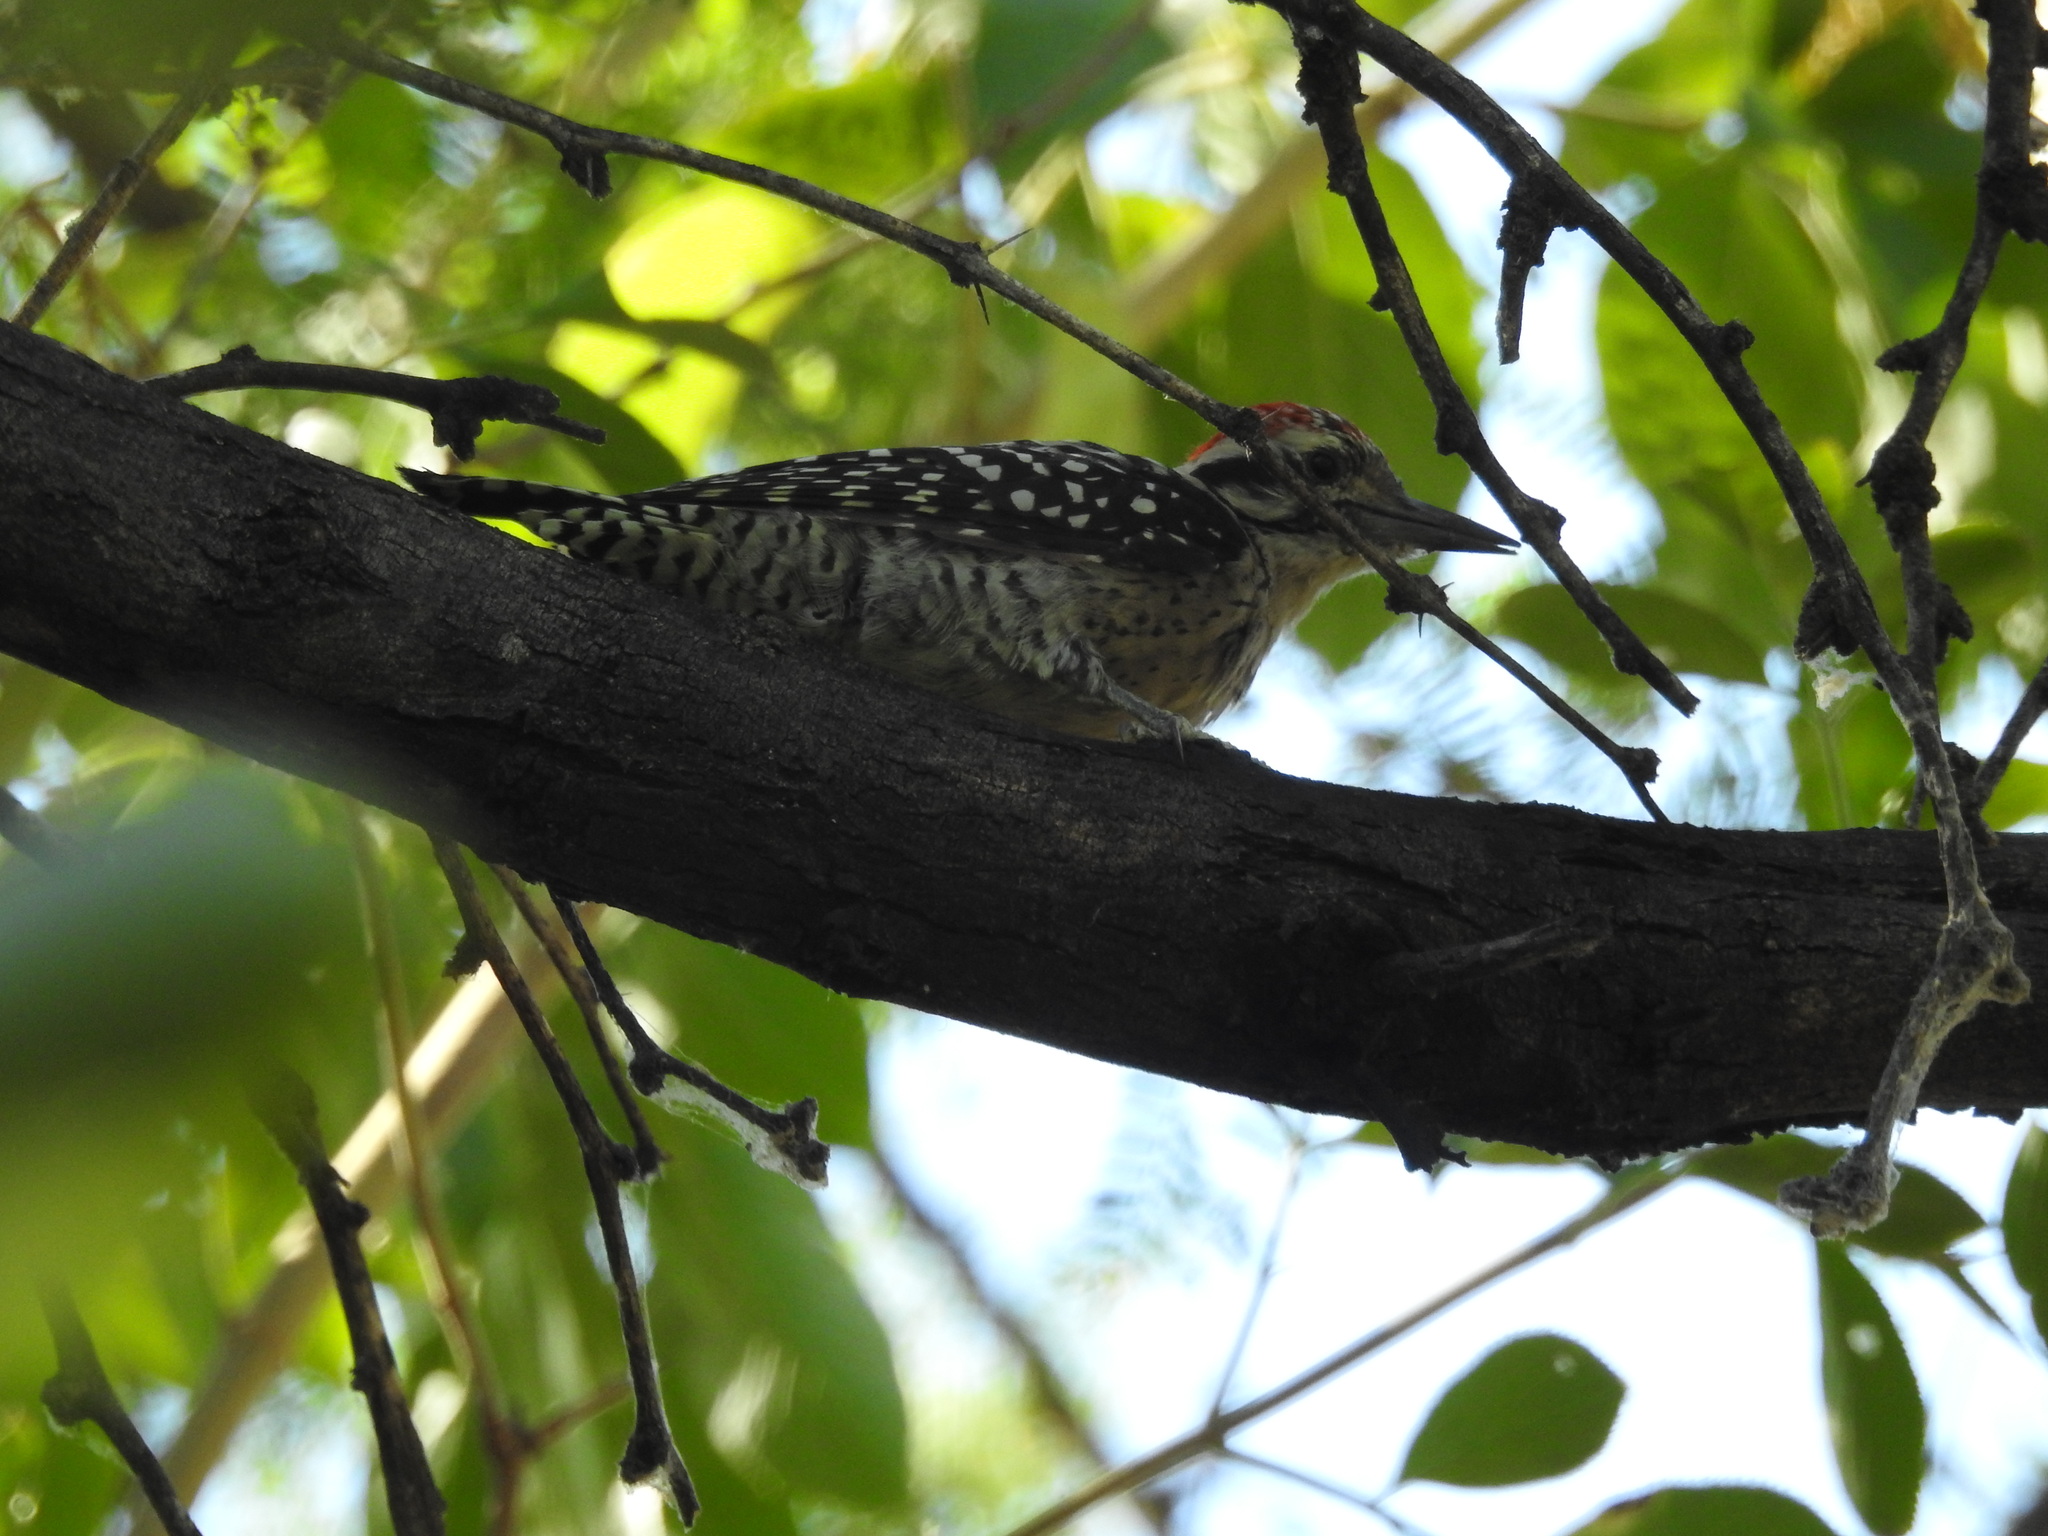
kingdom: Animalia
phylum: Chordata
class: Aves
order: Piciformes
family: Picidae
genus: Dryobates
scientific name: Dryobates scalaris
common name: Ladder-backed woodpecker
